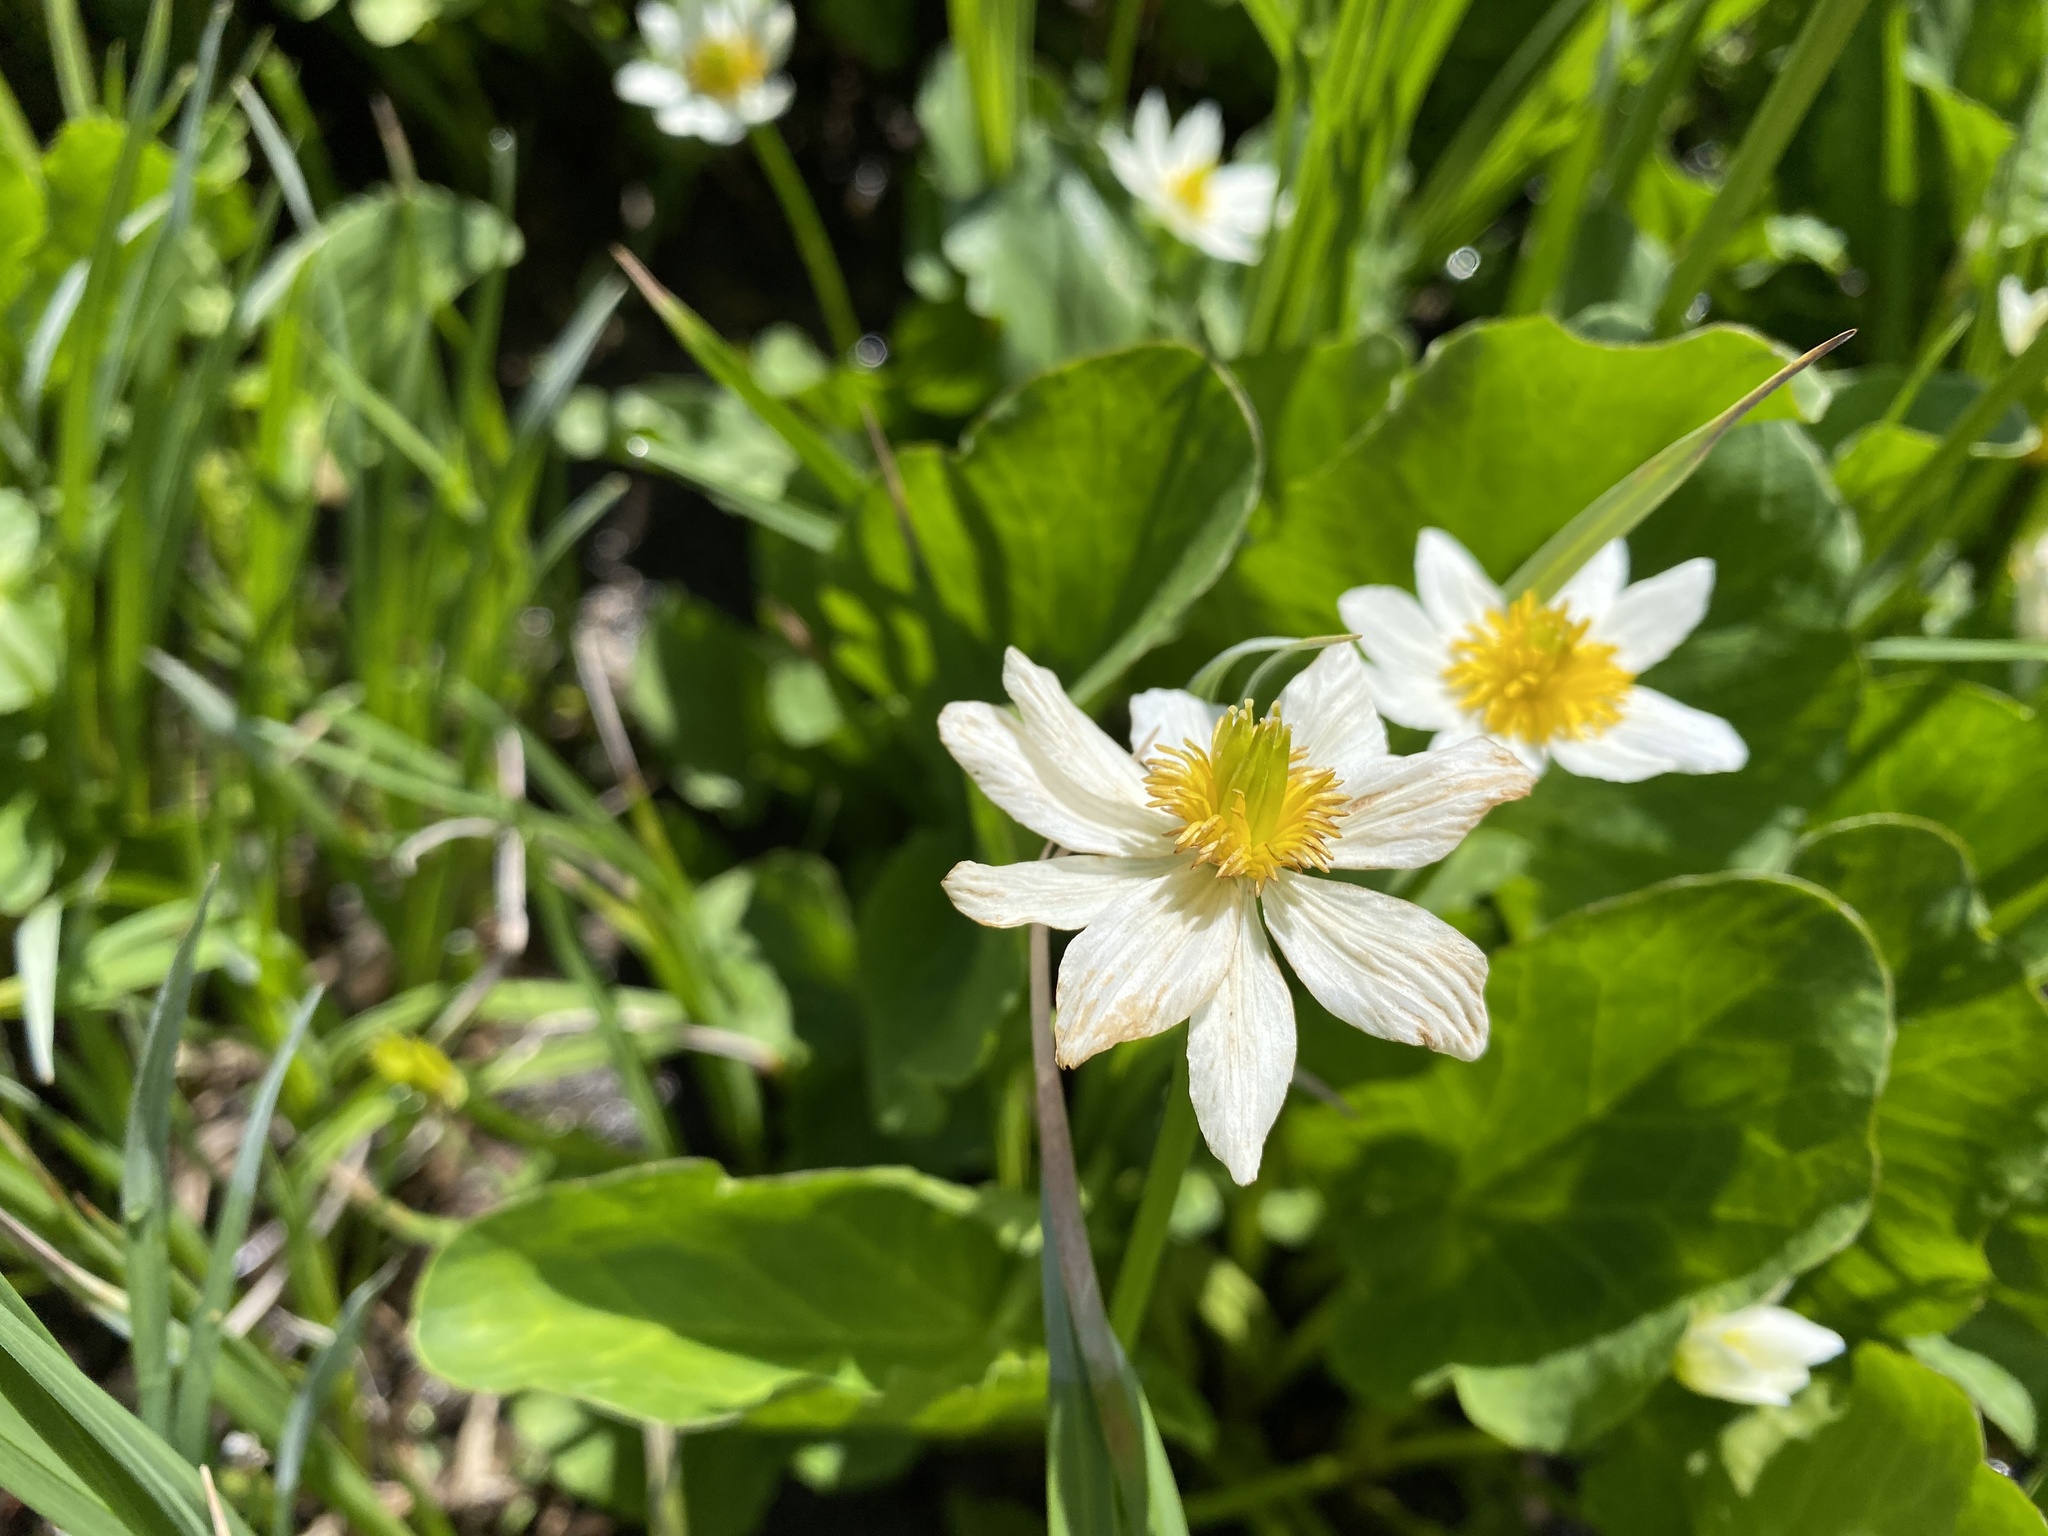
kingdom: Plantae
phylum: Tracheophyta
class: Magnoliopsida
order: Ranunculales
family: Ranunculaceae
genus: Caltha
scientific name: Caltha leptosepala
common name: Elkslip
